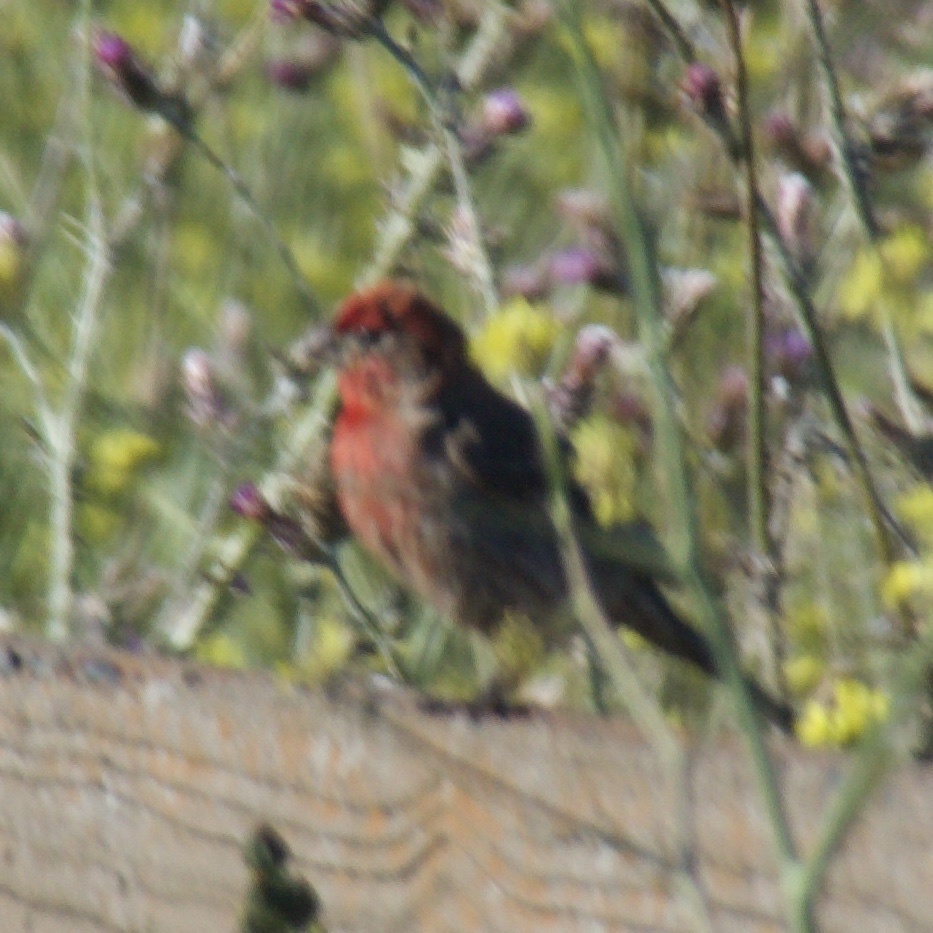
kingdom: Animalia
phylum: Chordata
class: Aves
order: Passeriformes
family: Fringillidae
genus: Haemorhous
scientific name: Haemorhous mexicanus
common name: House finch
